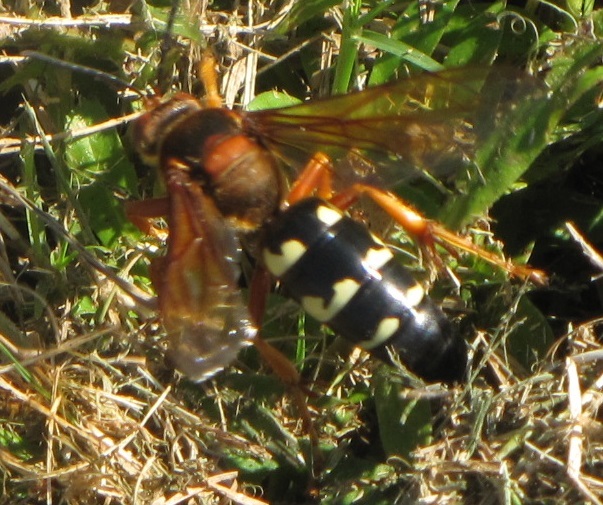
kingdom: Animalia
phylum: Arthropoda
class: Insecta
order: Hymenoptera
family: Crabronidae
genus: Sphecius
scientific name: Sphecius speciosus
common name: Cicada killer
